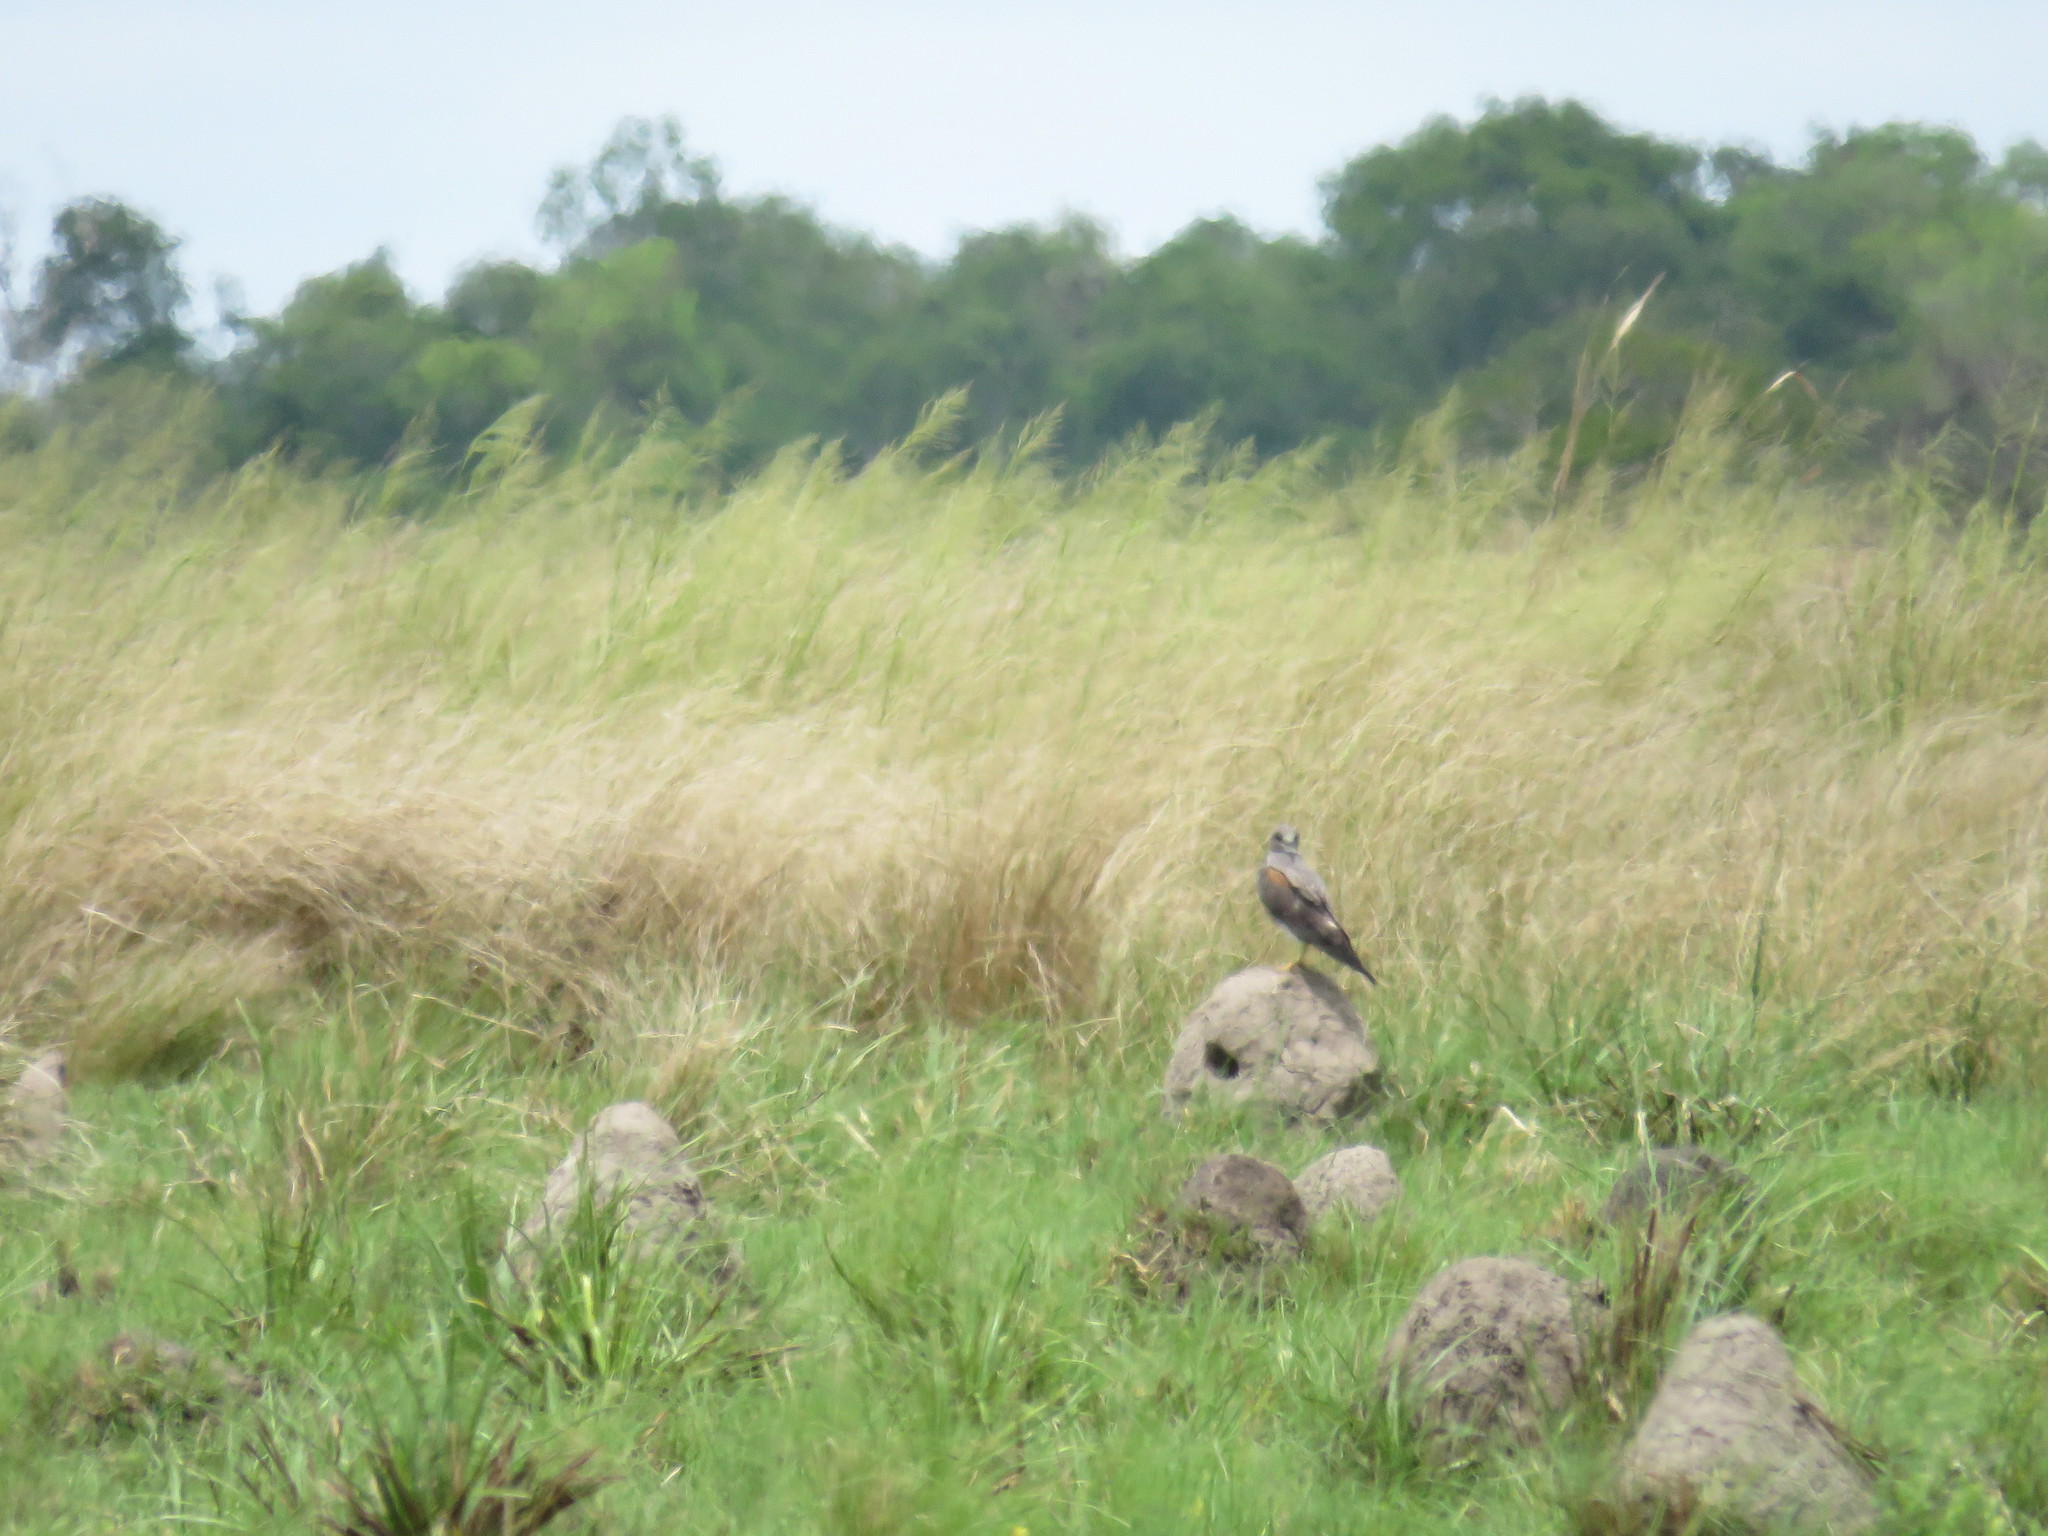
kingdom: Animalia
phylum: Chordata
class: Aves
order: Accipitriformes
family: Accipitridae
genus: Buteo
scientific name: Buteo albicaudatus
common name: White-tailed hawk
